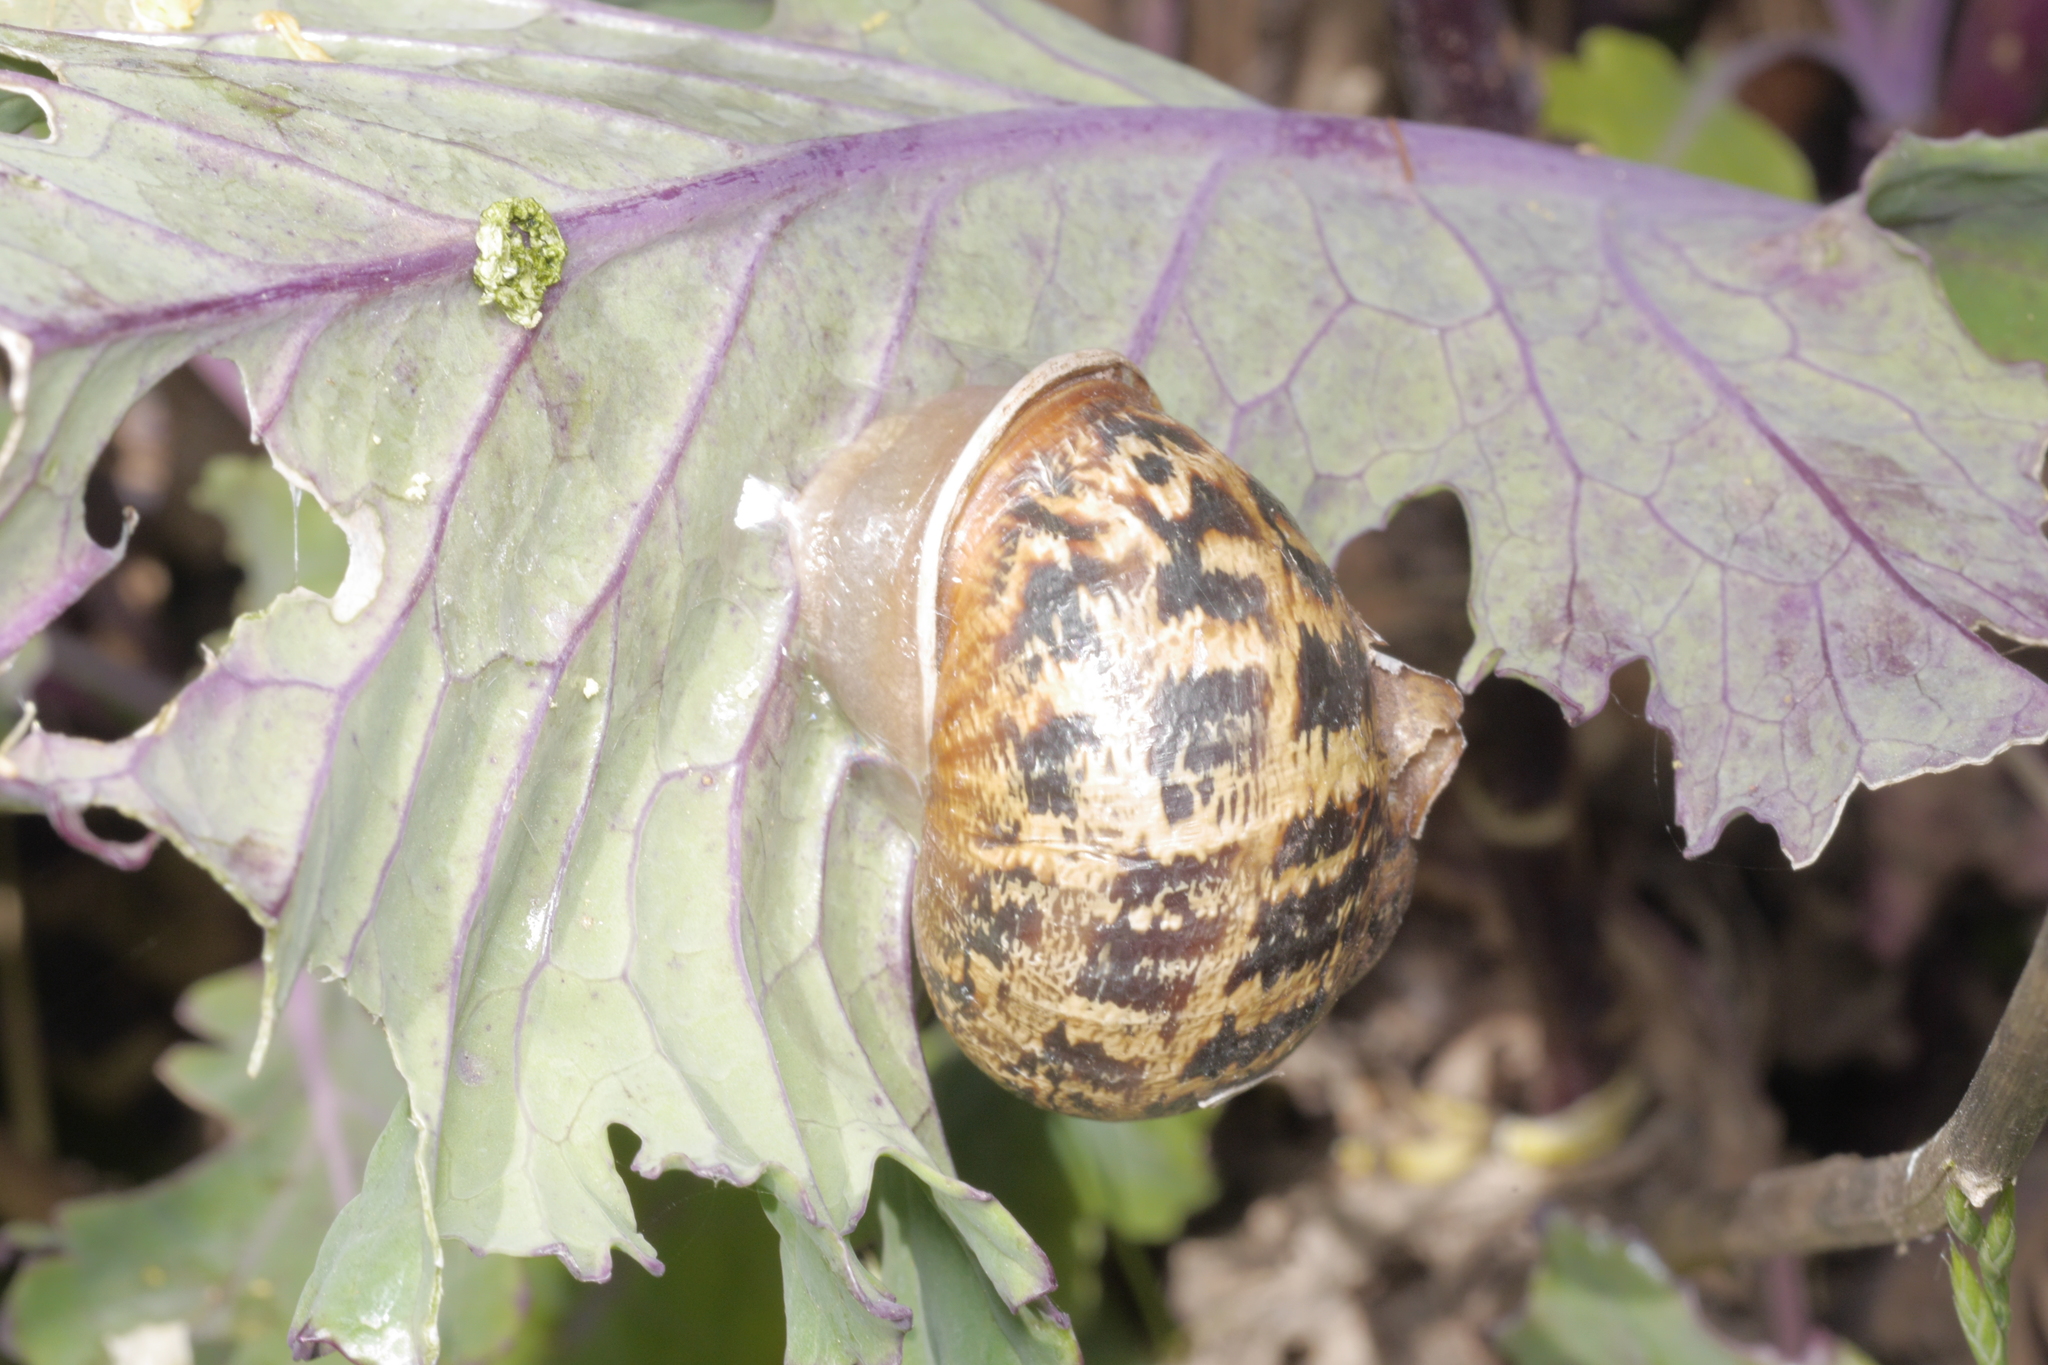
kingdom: Animalia
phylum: Mollusca
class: Gastropoda
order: Stylommatophora
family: Helicidae
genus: Cornu
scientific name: Cornu aspersum
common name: Brown garden snail
